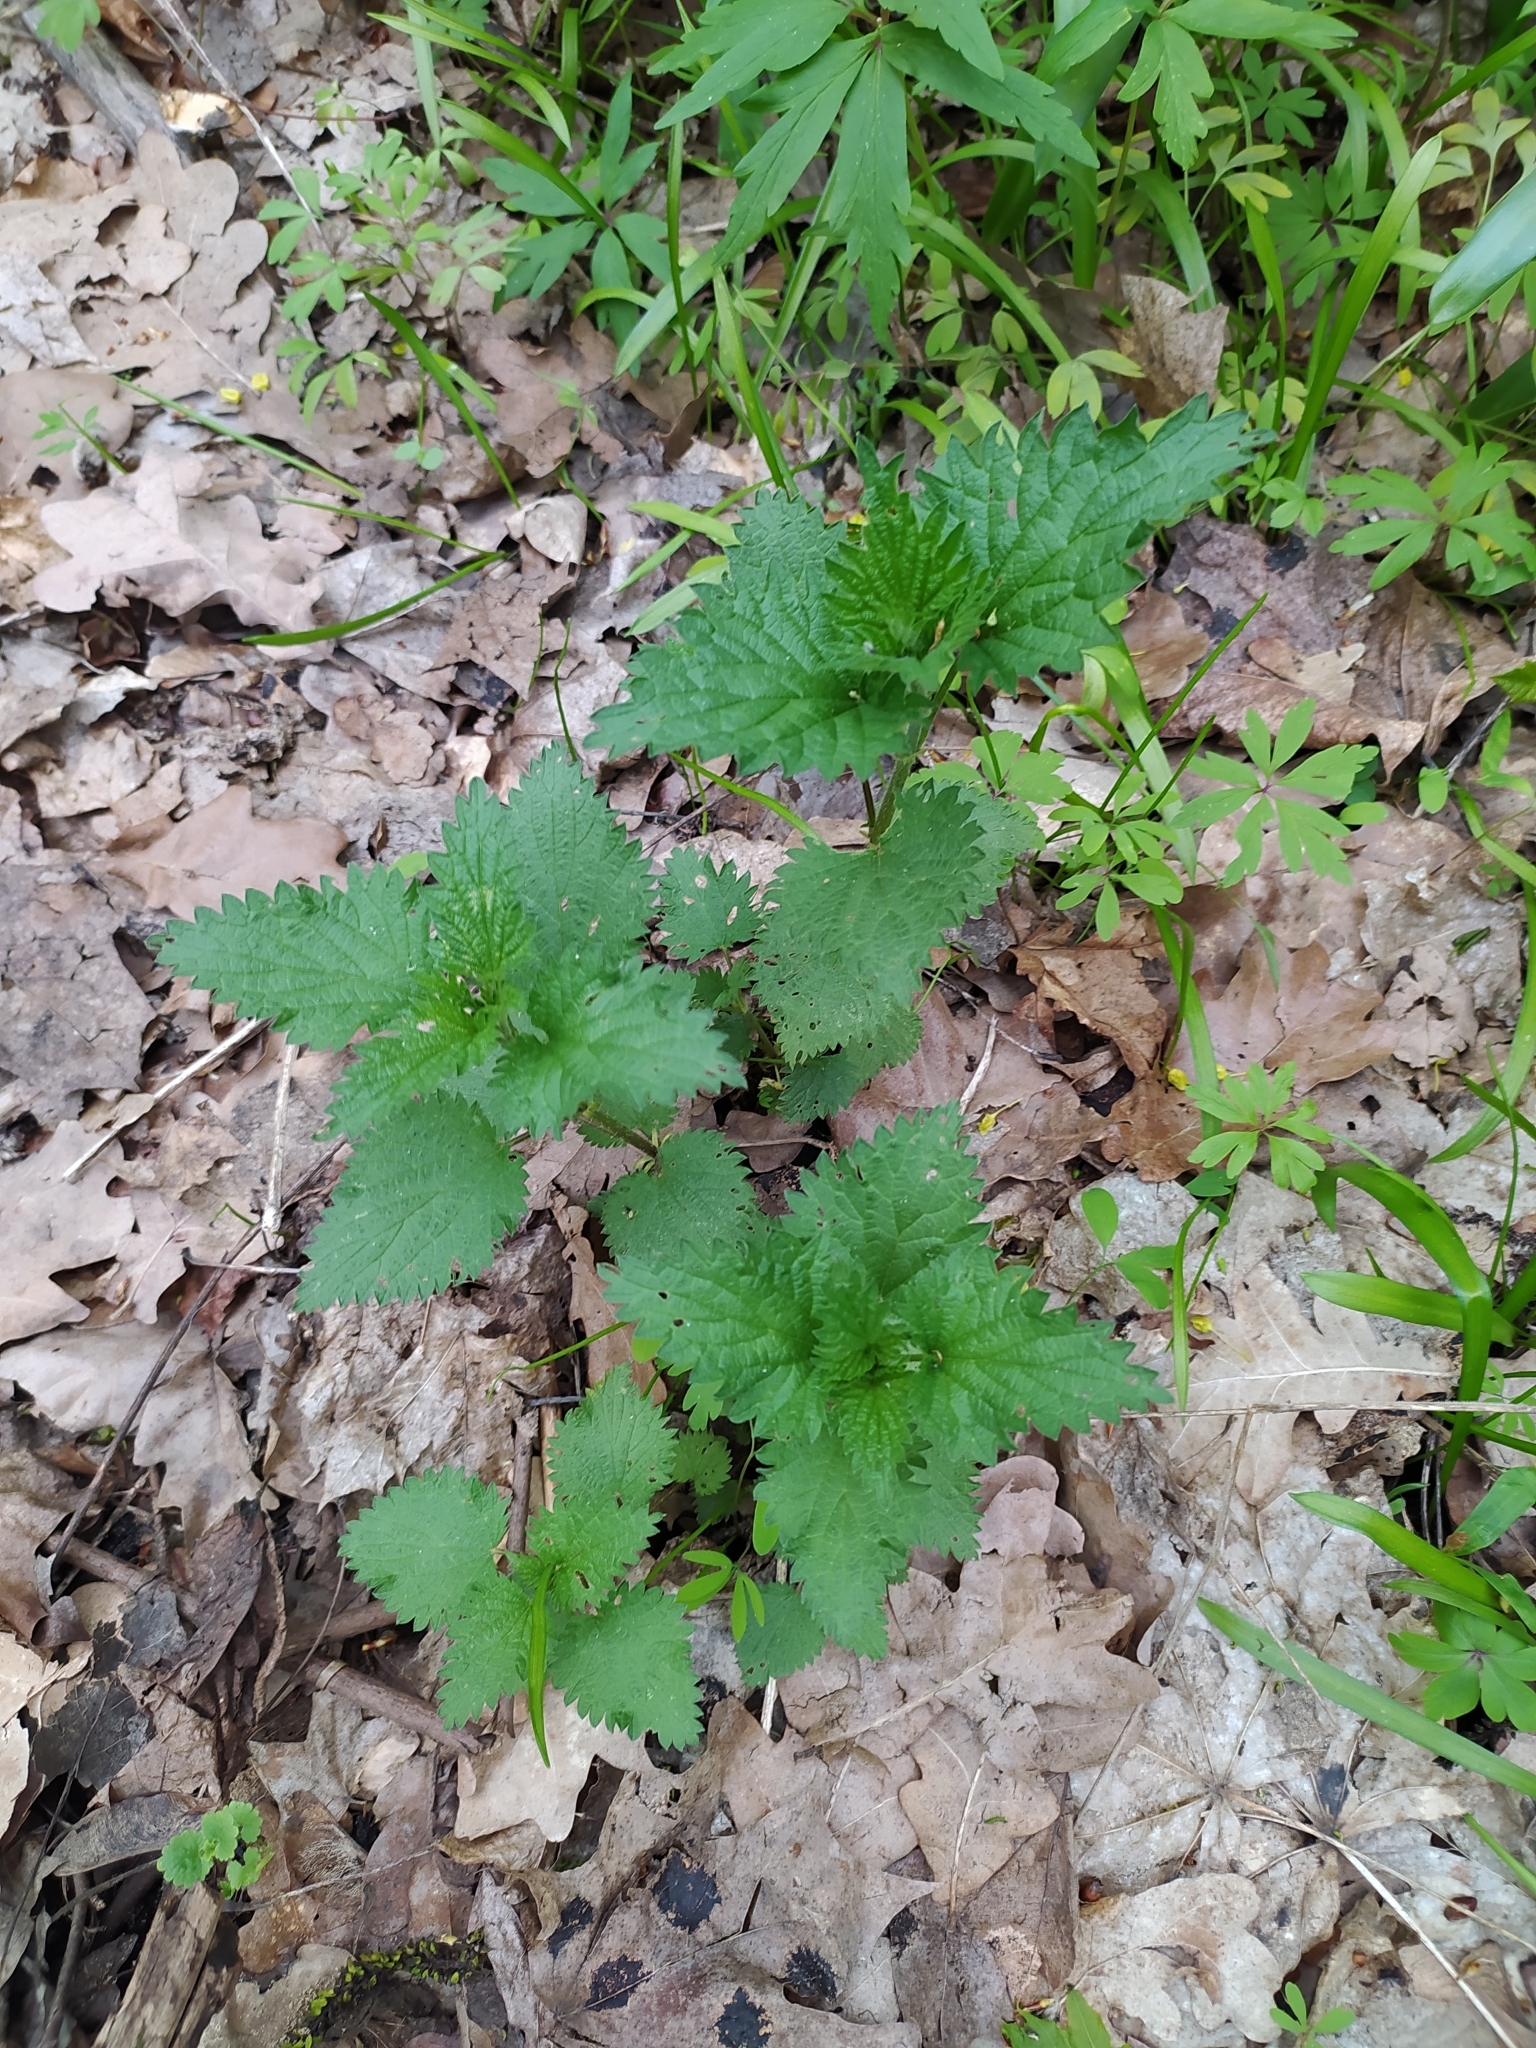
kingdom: Plantae
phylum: Tracheophyta
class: Magnoliopsida
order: Rosales
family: Urticaceae
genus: Urtica
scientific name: Urtica dioica
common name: Common nettle
